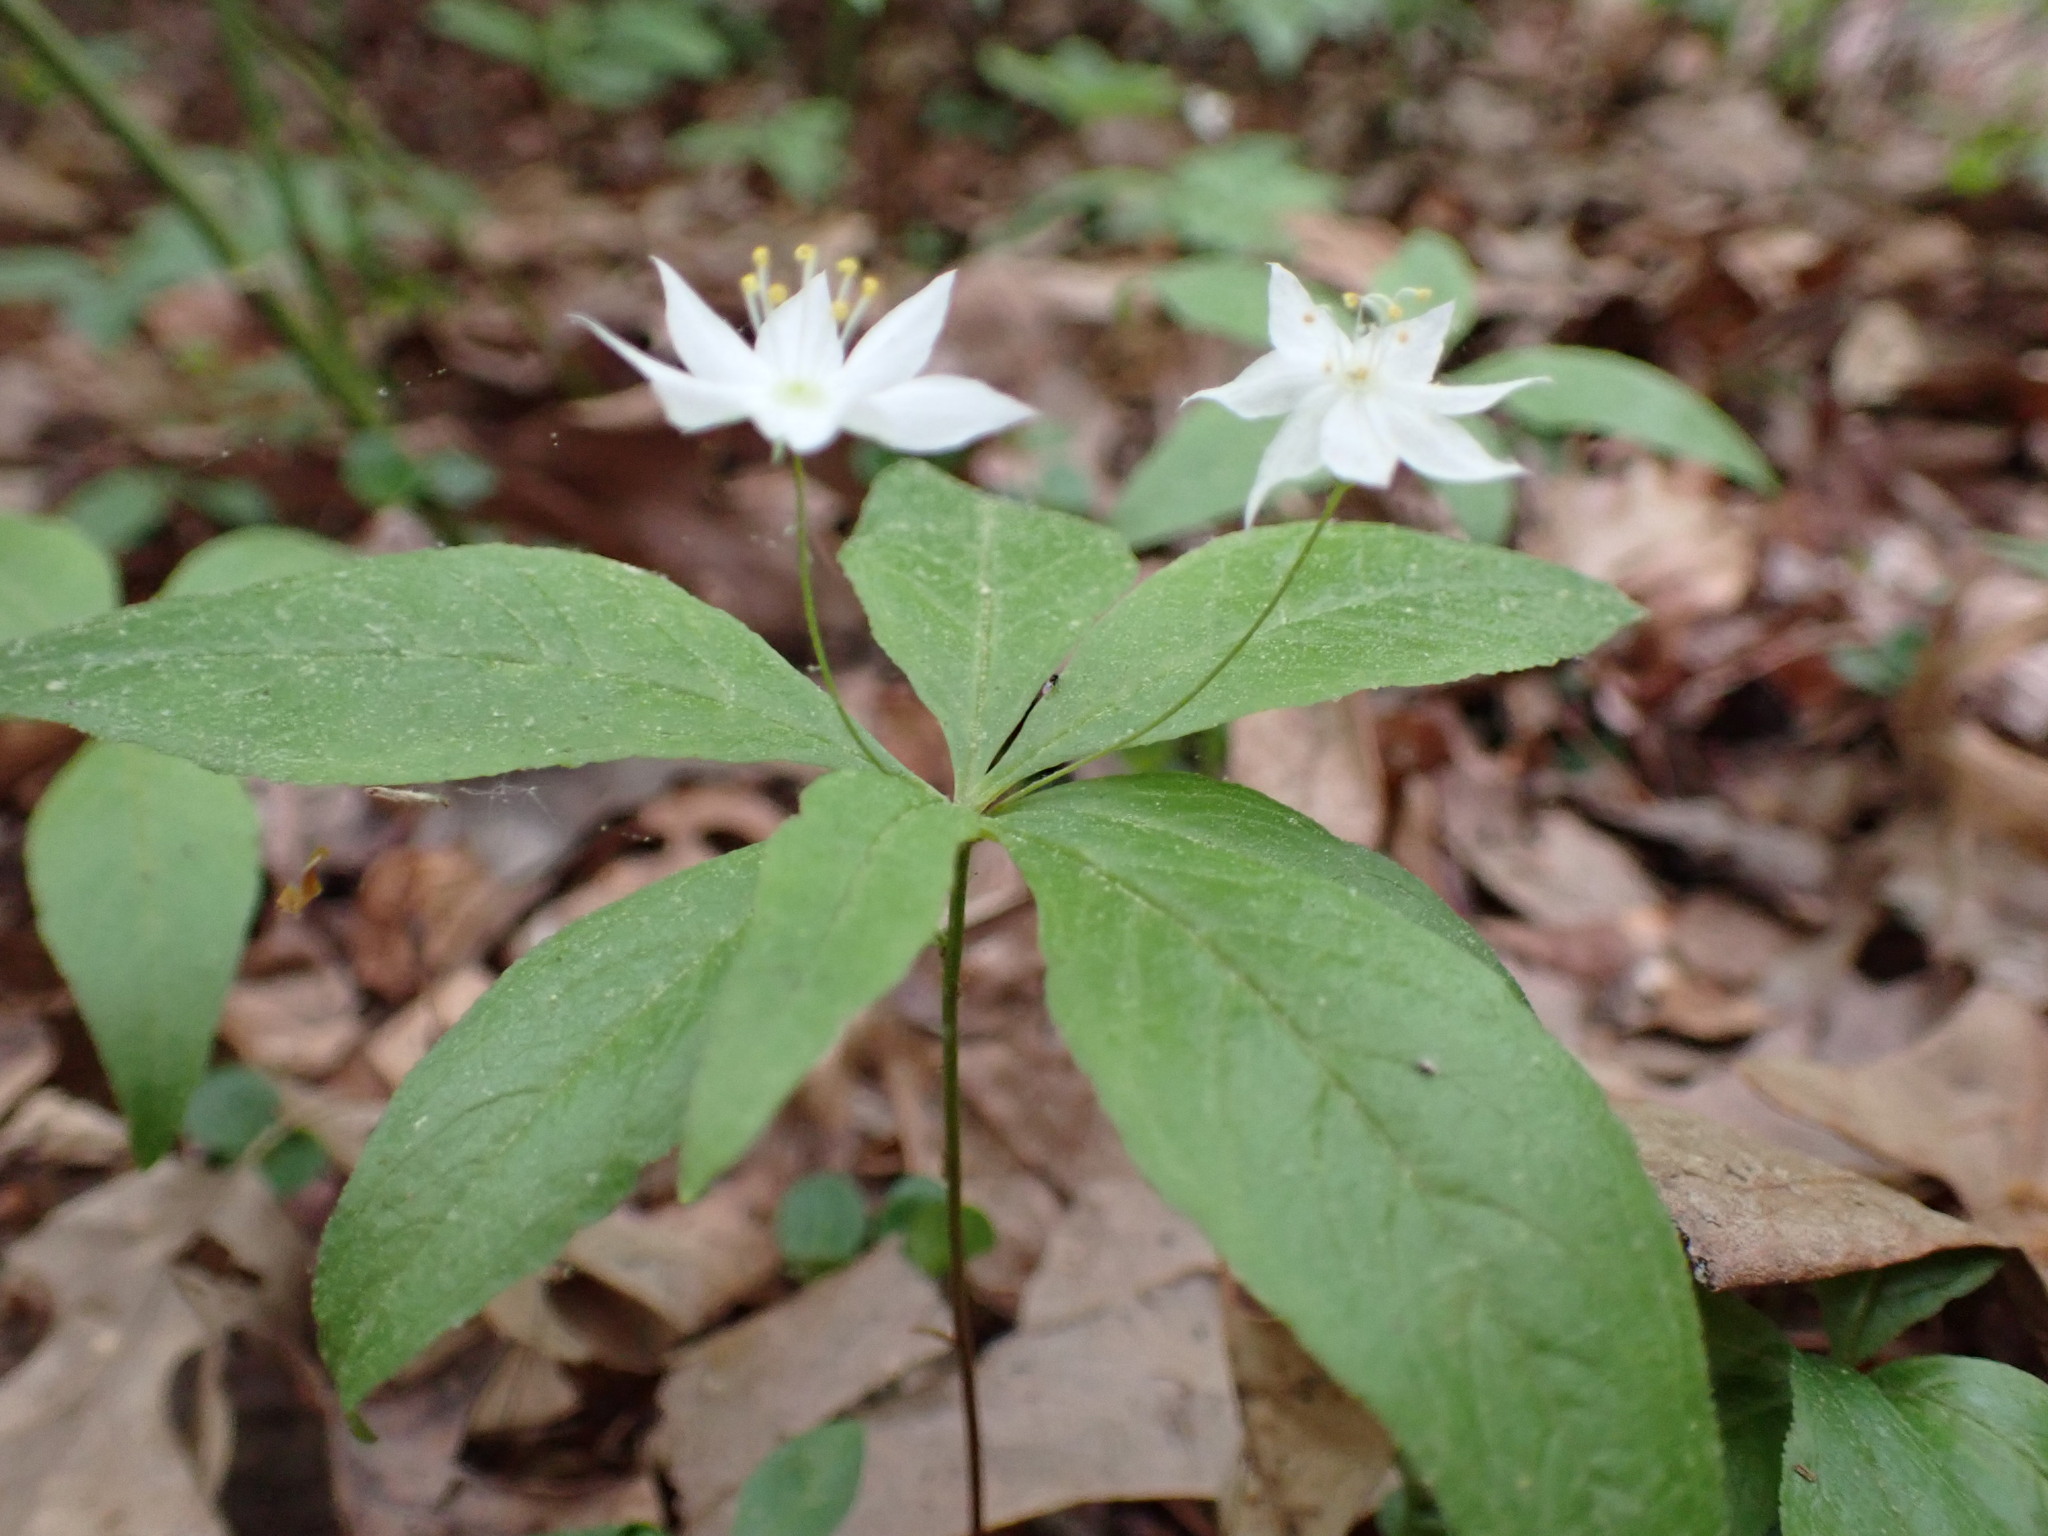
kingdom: Plantae
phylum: Tracheophyta
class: Magnoliopsida
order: Ericales
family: Primulaceae
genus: Lysimachia
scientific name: Lysimachia borealis
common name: American starflower
